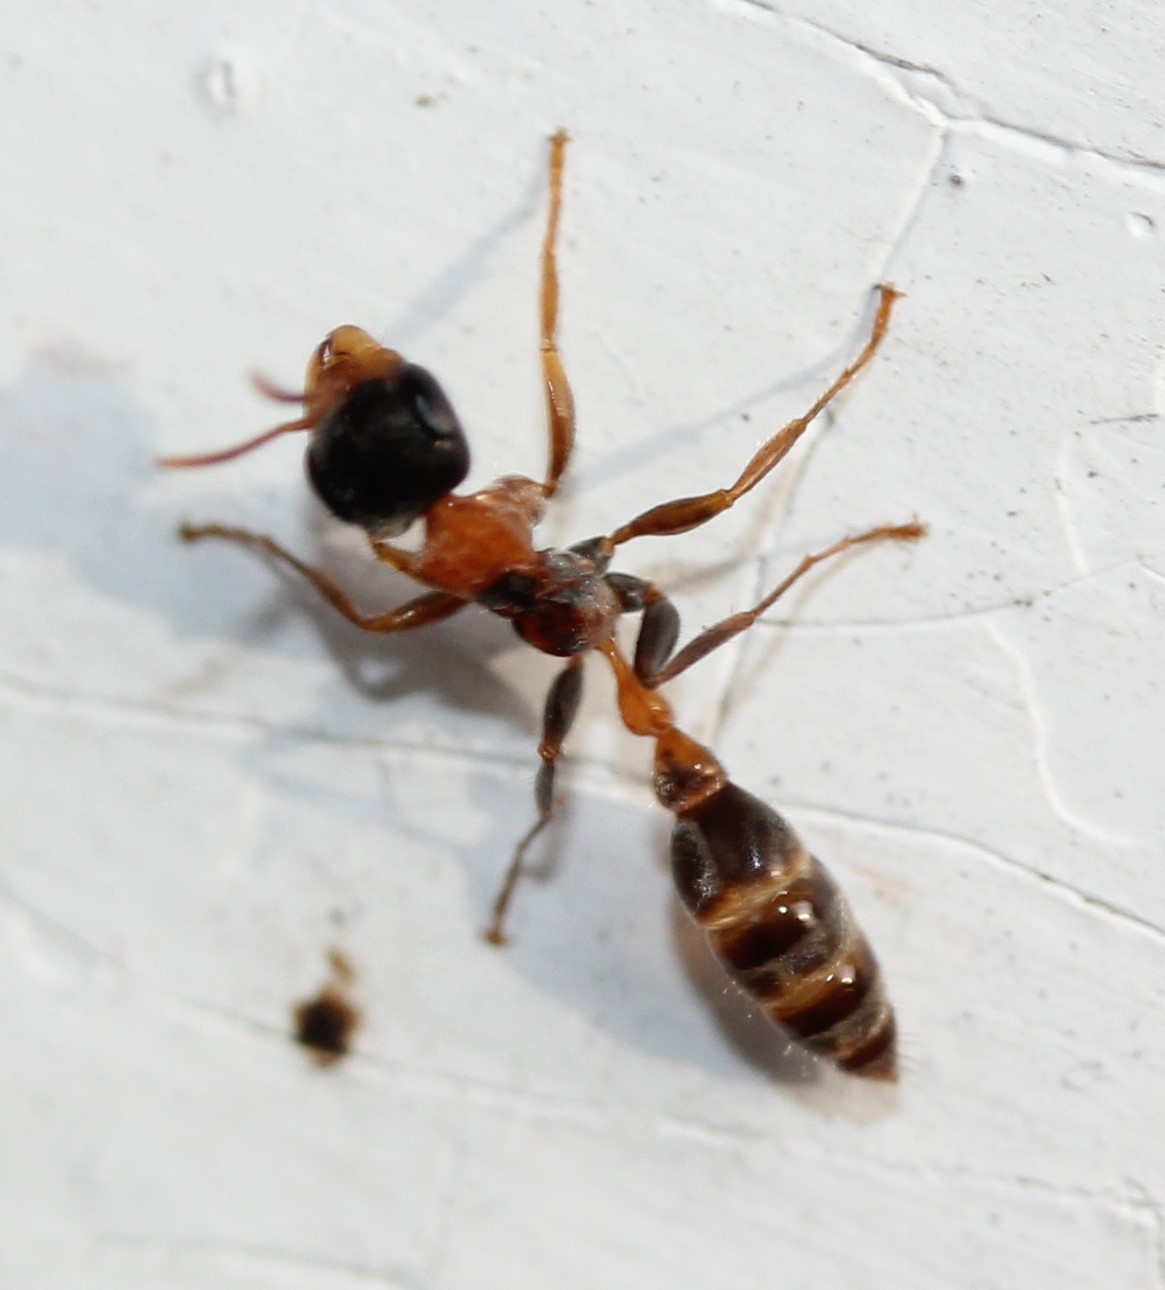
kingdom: Animalia
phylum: Arthropoda
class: Insecta
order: Hymenoptera
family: Formicidae
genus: Pseudomyrmex
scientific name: Pseudomyrmex gracilis
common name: Graceful twig ant
